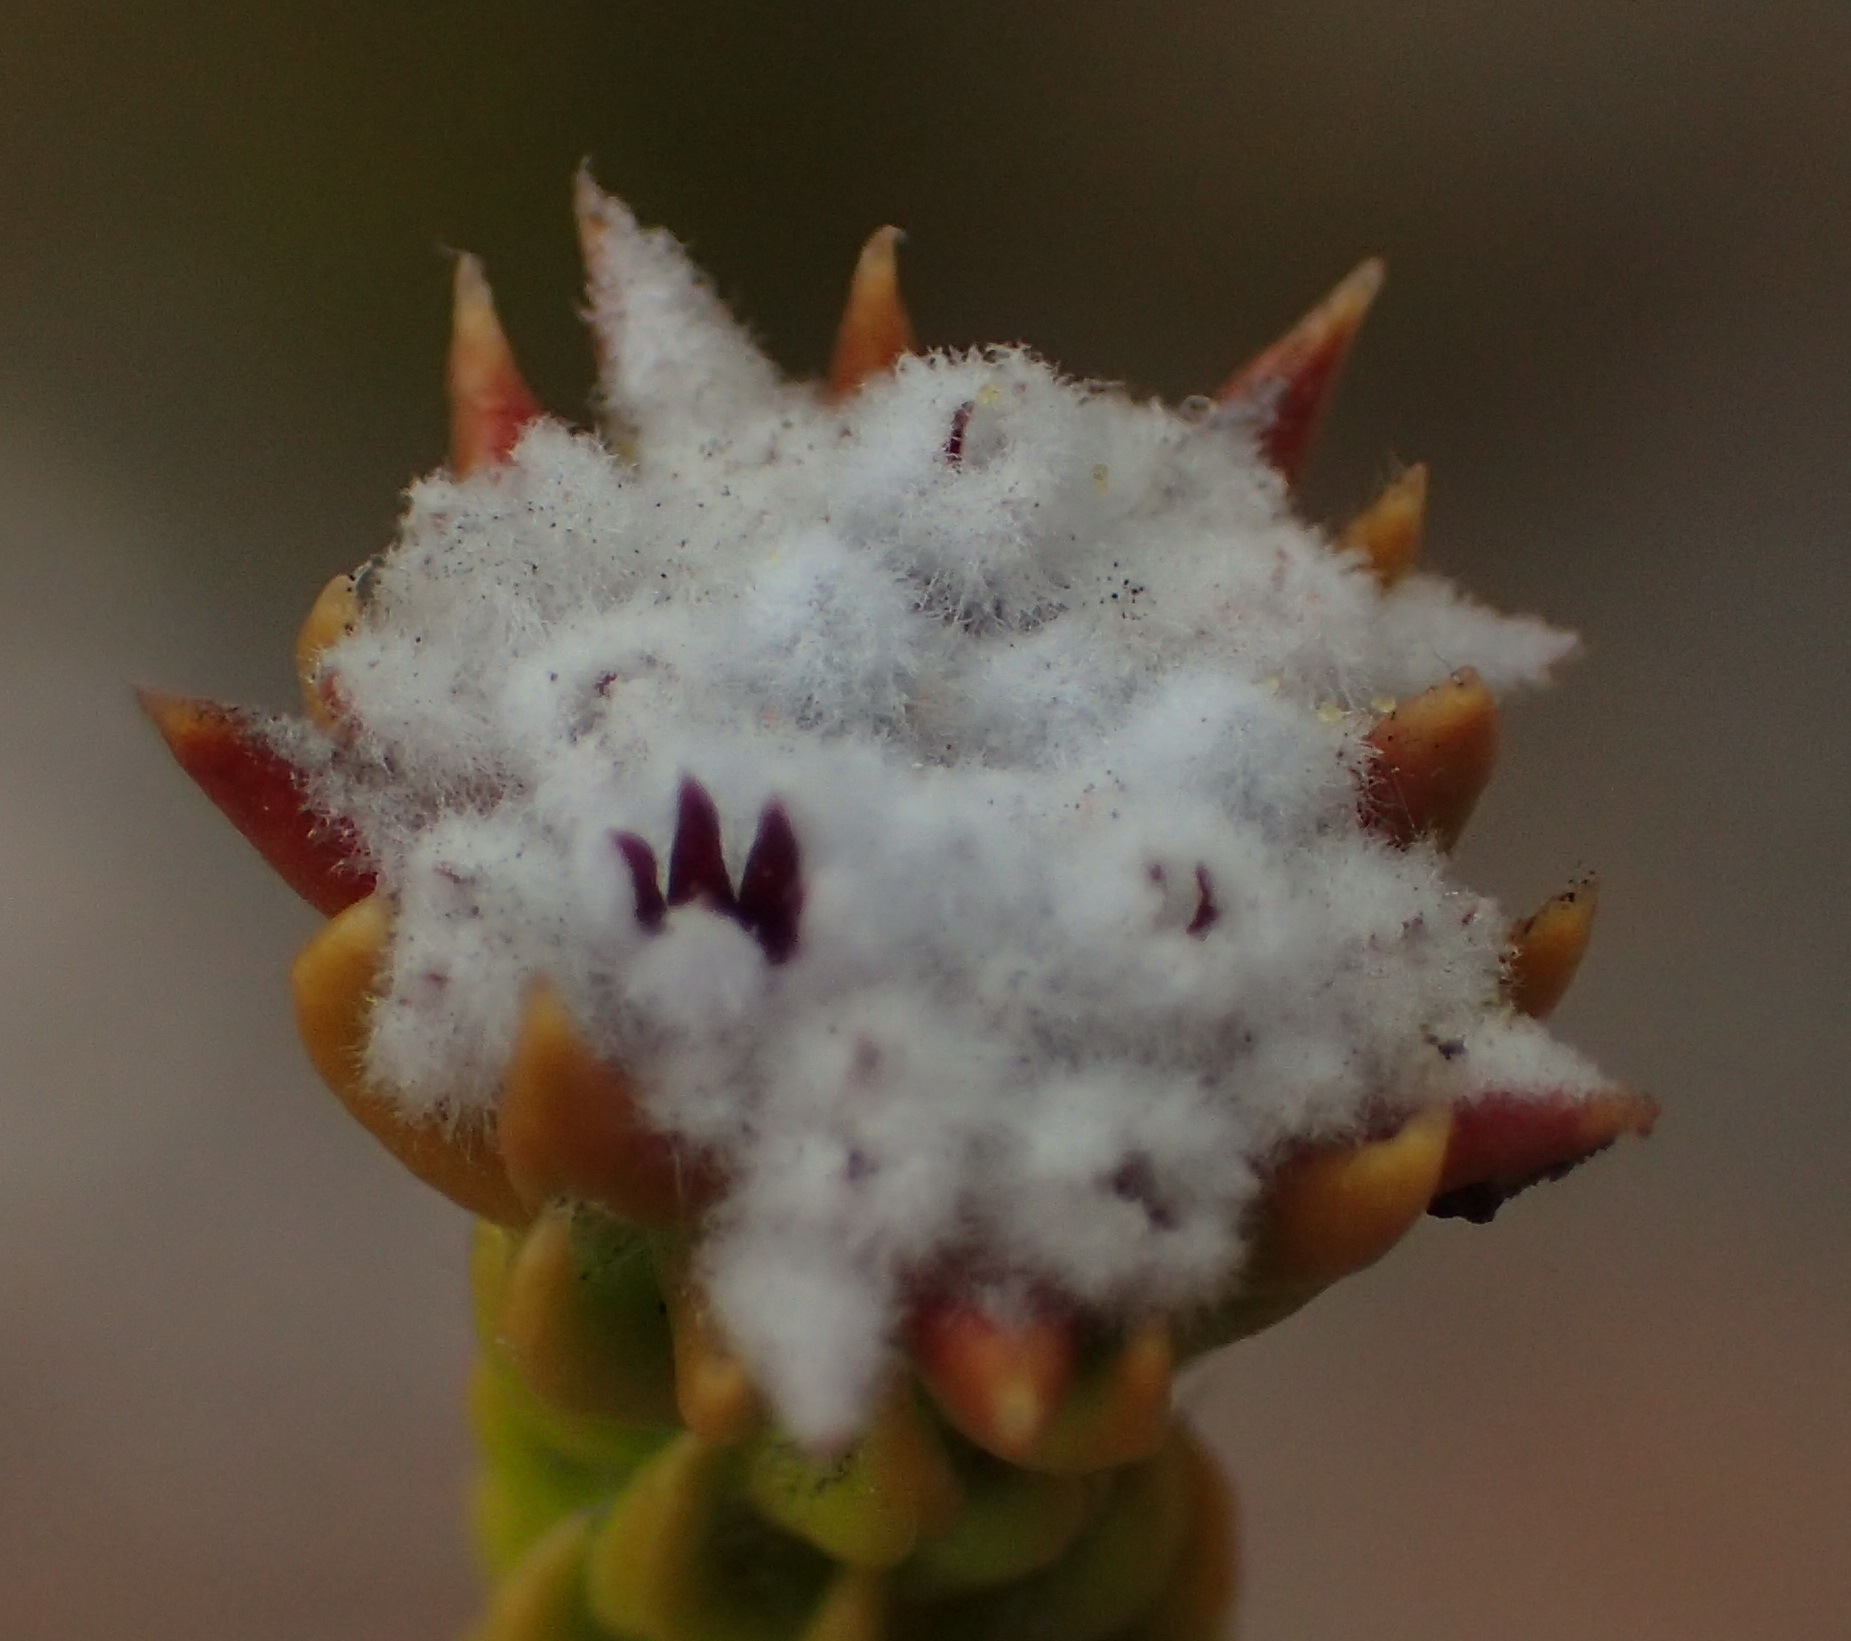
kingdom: Plantae
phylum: Tracheophyta
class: Magnoliopsida
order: Rosales
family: Rhamnaceae
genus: Phylica
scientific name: Phylica debilis
